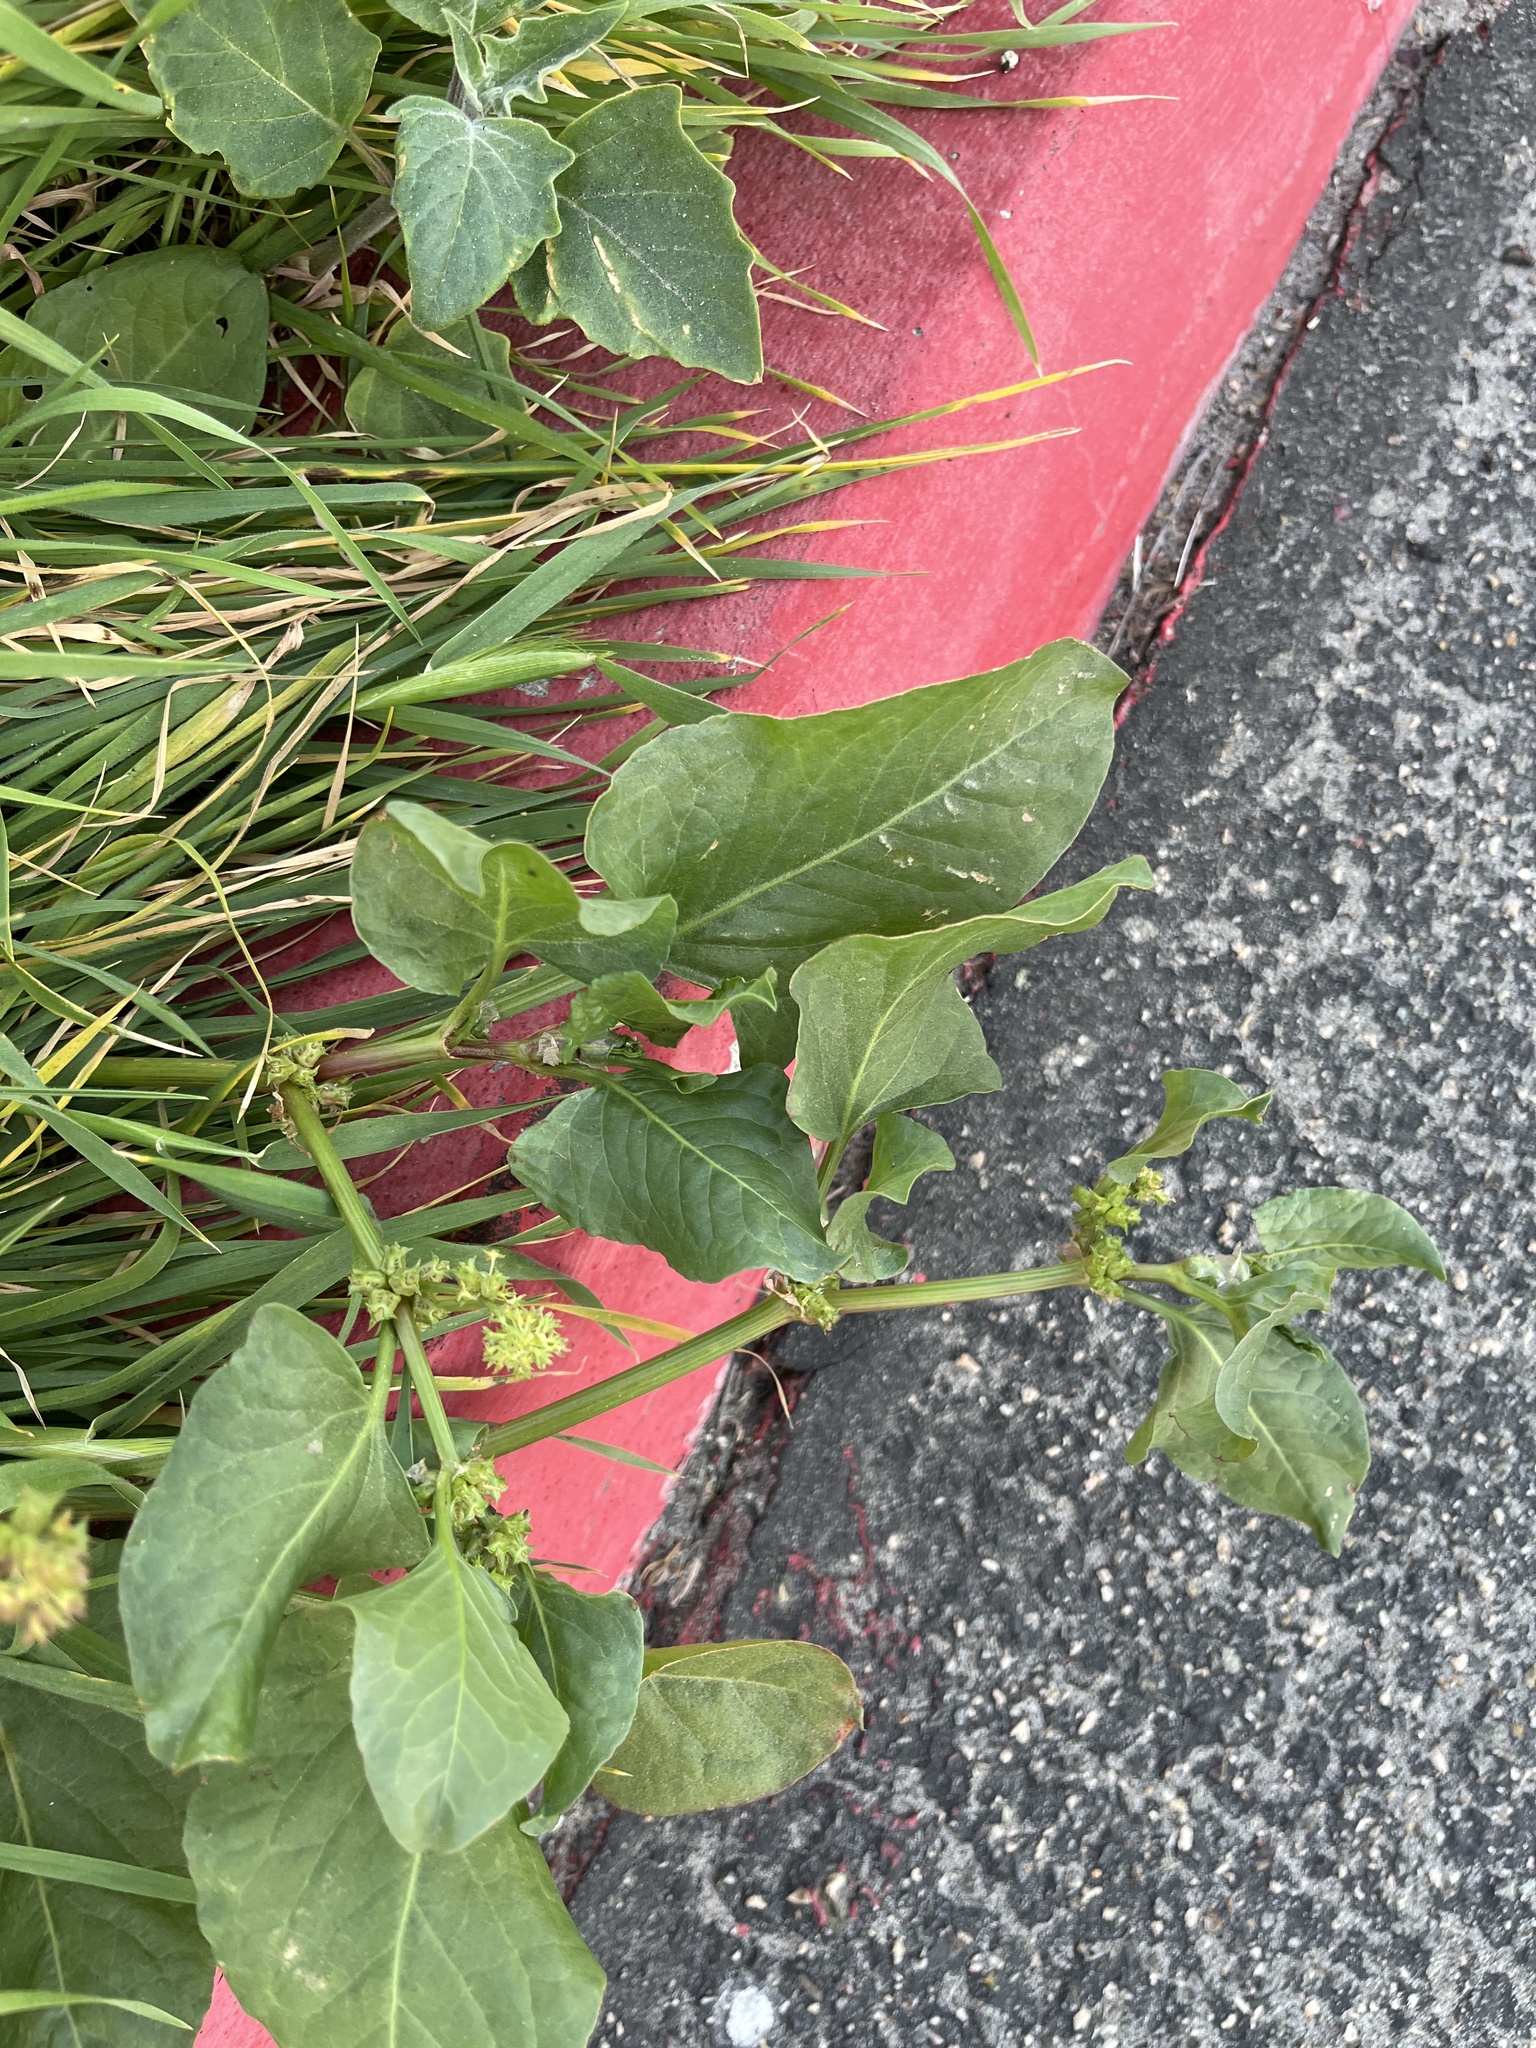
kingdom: Plantae
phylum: Tracheophyta
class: Magnoliopsida
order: Caryophyllales
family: Polygonaceae
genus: Rumex
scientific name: Rumex spinosus
